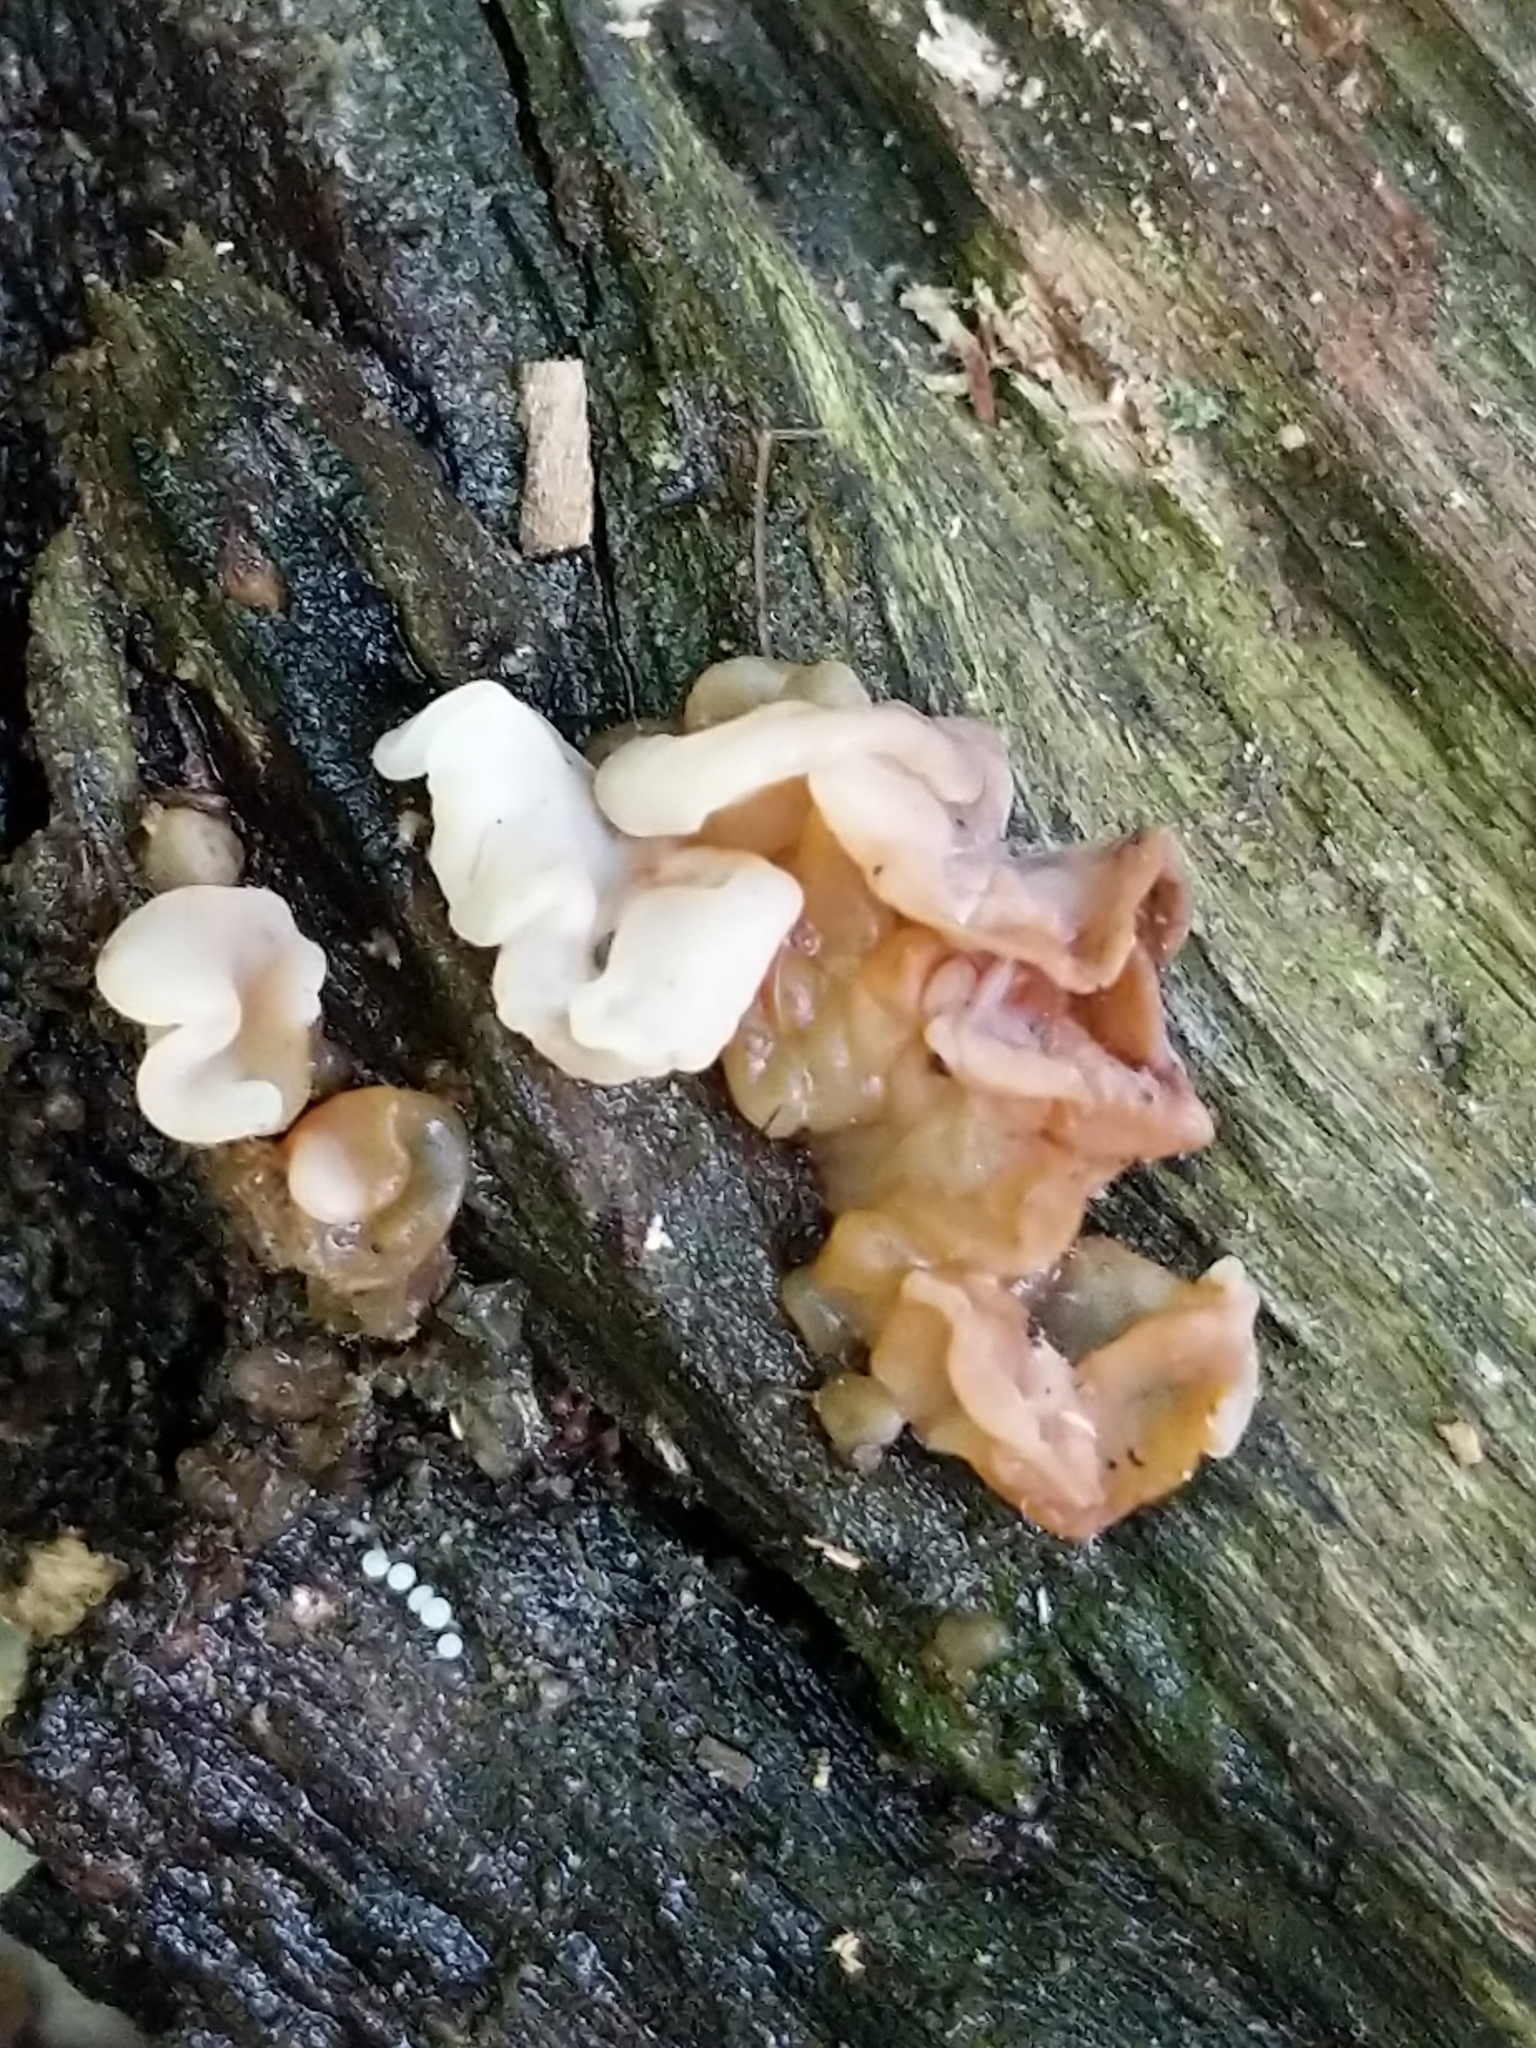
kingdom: Fungi
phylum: Basidiomycota
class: Agaricomycetes
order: Auriculariales
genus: Ductifera
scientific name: Ductifera pululahuana
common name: White jelly fungus
